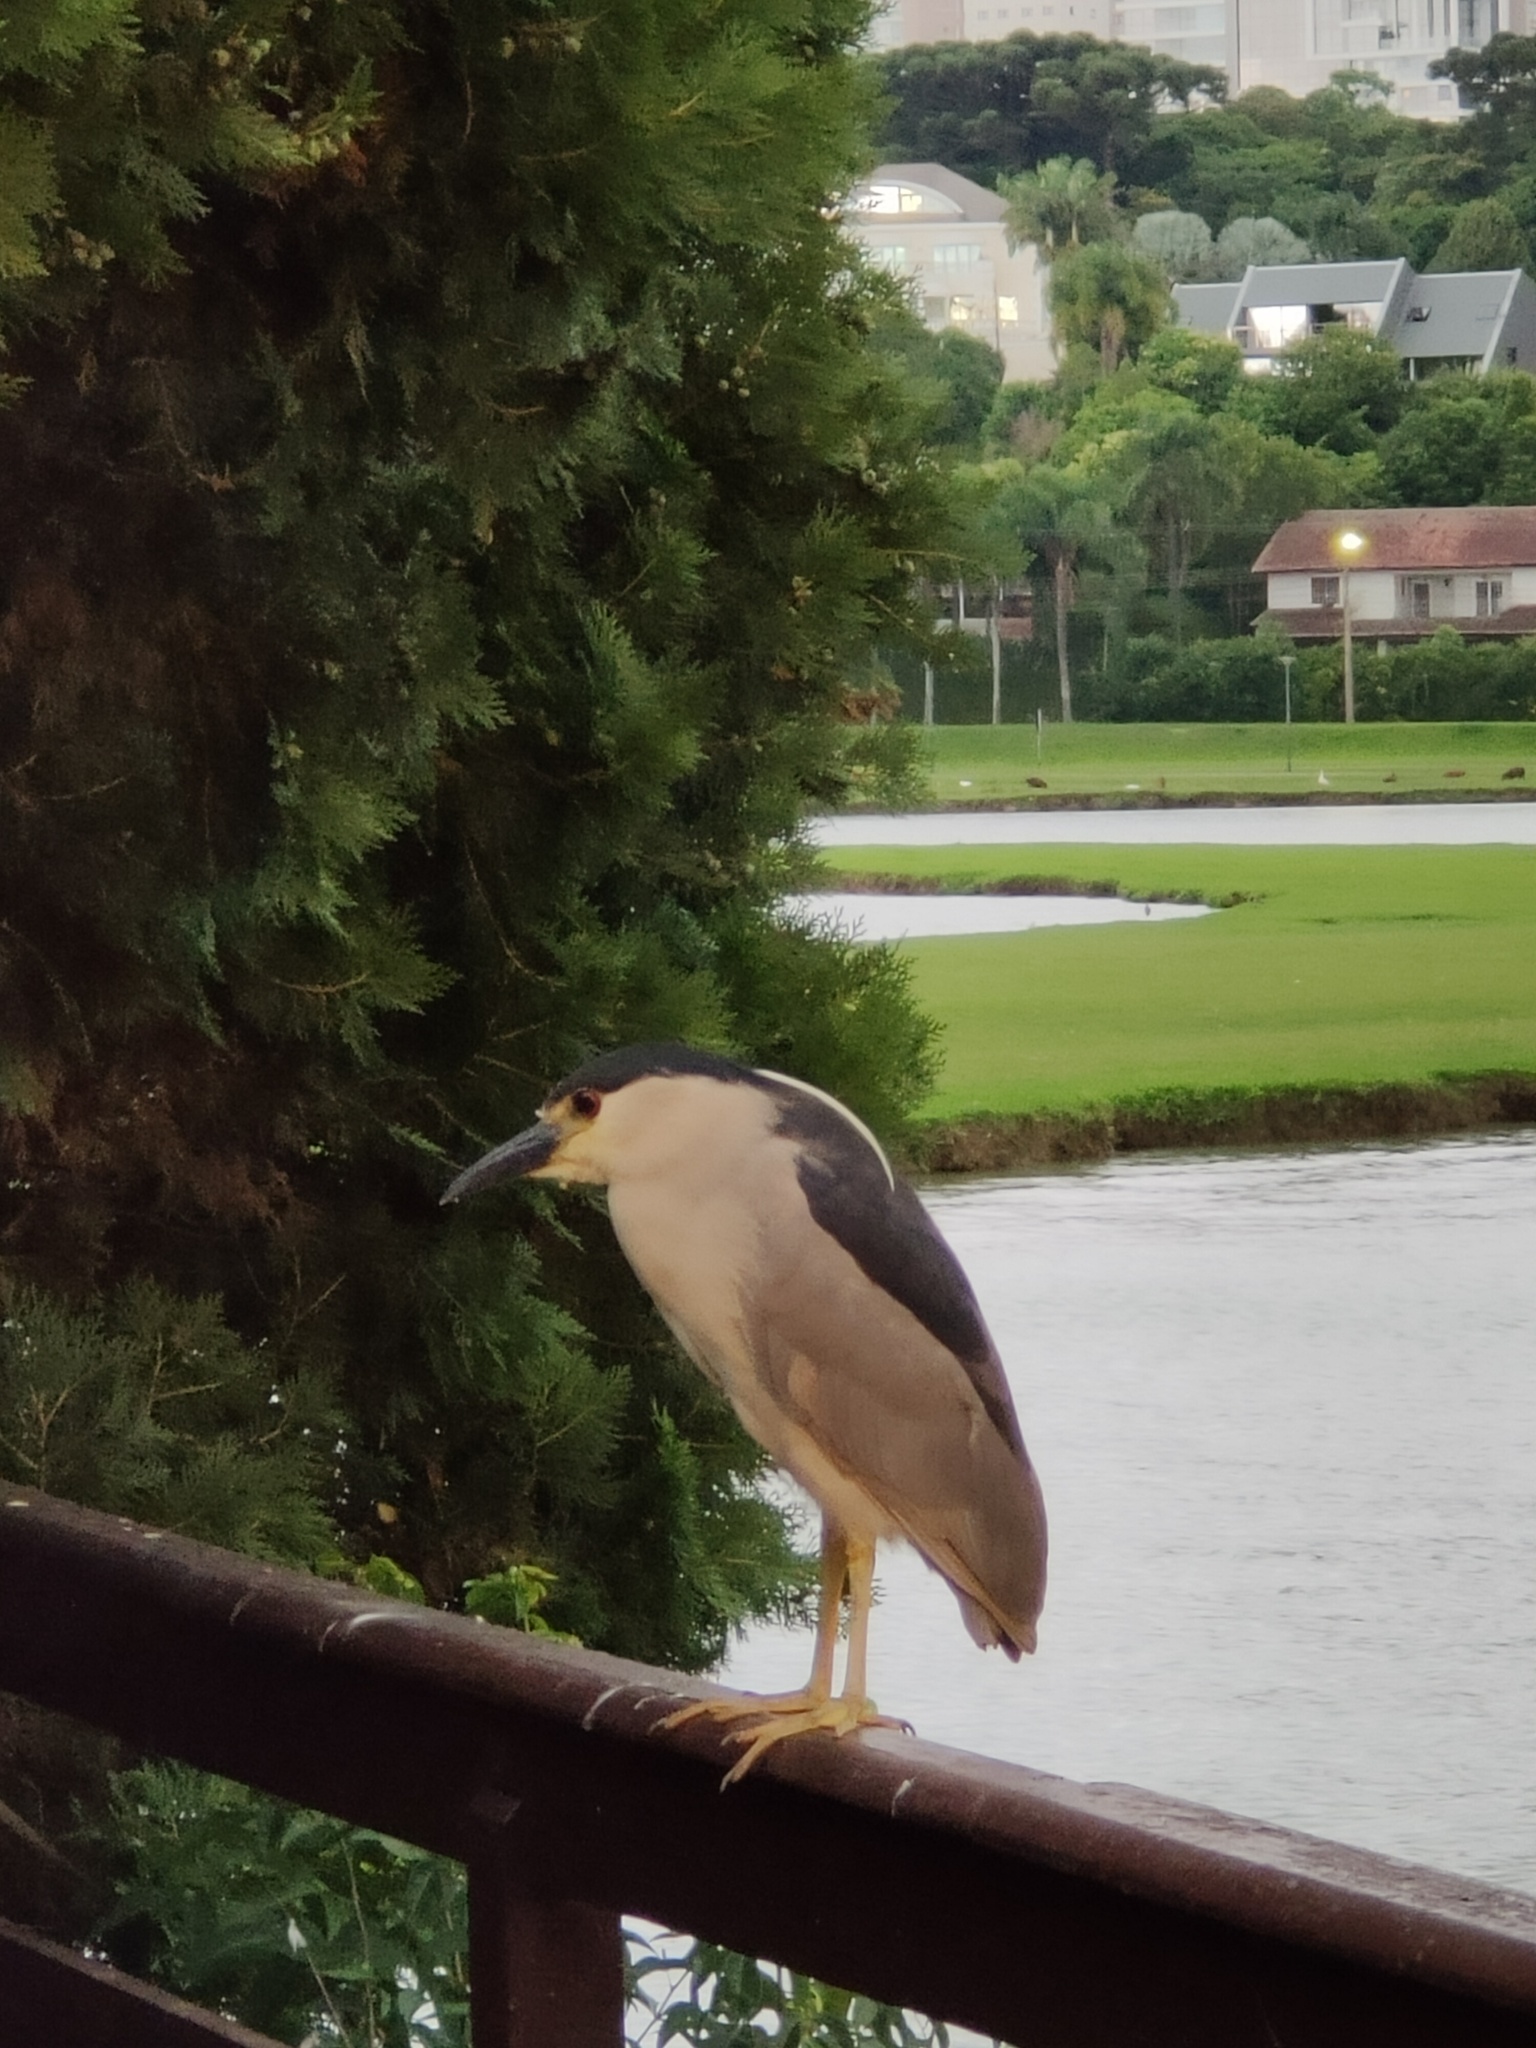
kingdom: Animalia
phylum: Chordata
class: Aves
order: Pelecaniformes
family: Ardeidae
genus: Nycticorax
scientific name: Nycticorax nycticorax
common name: Black-crowned night heron
